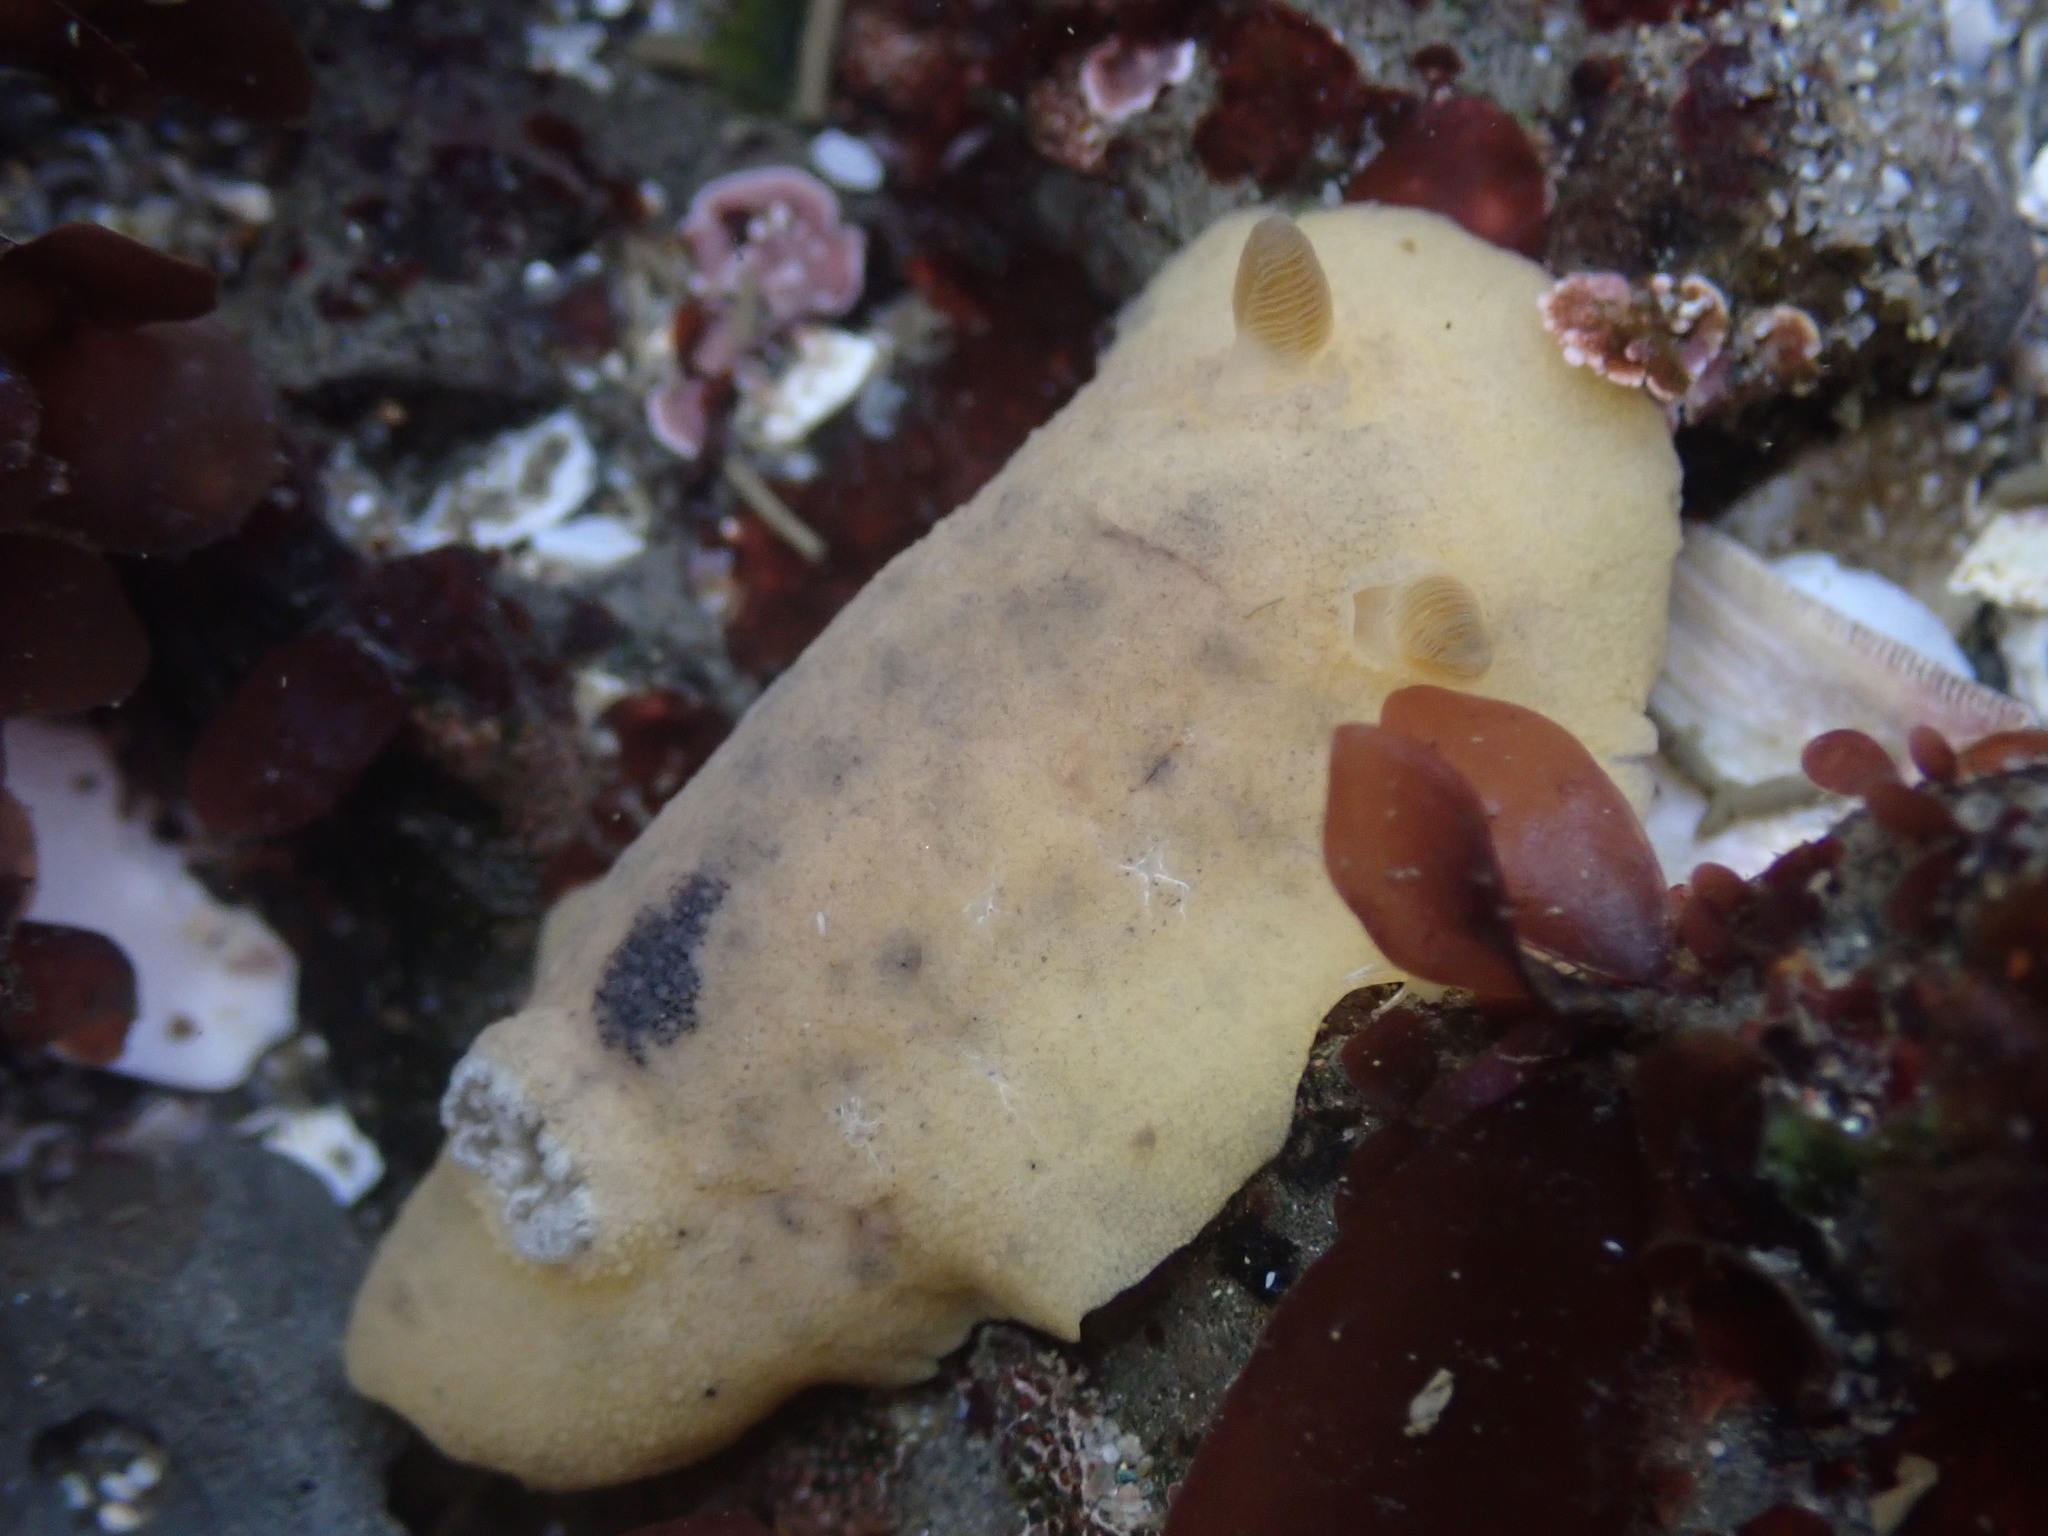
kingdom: Animalia
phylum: Mollusca
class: Gastropoda
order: Nudibranchia
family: Discodorididae
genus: Geitodoris
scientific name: Geitodoris heathi
